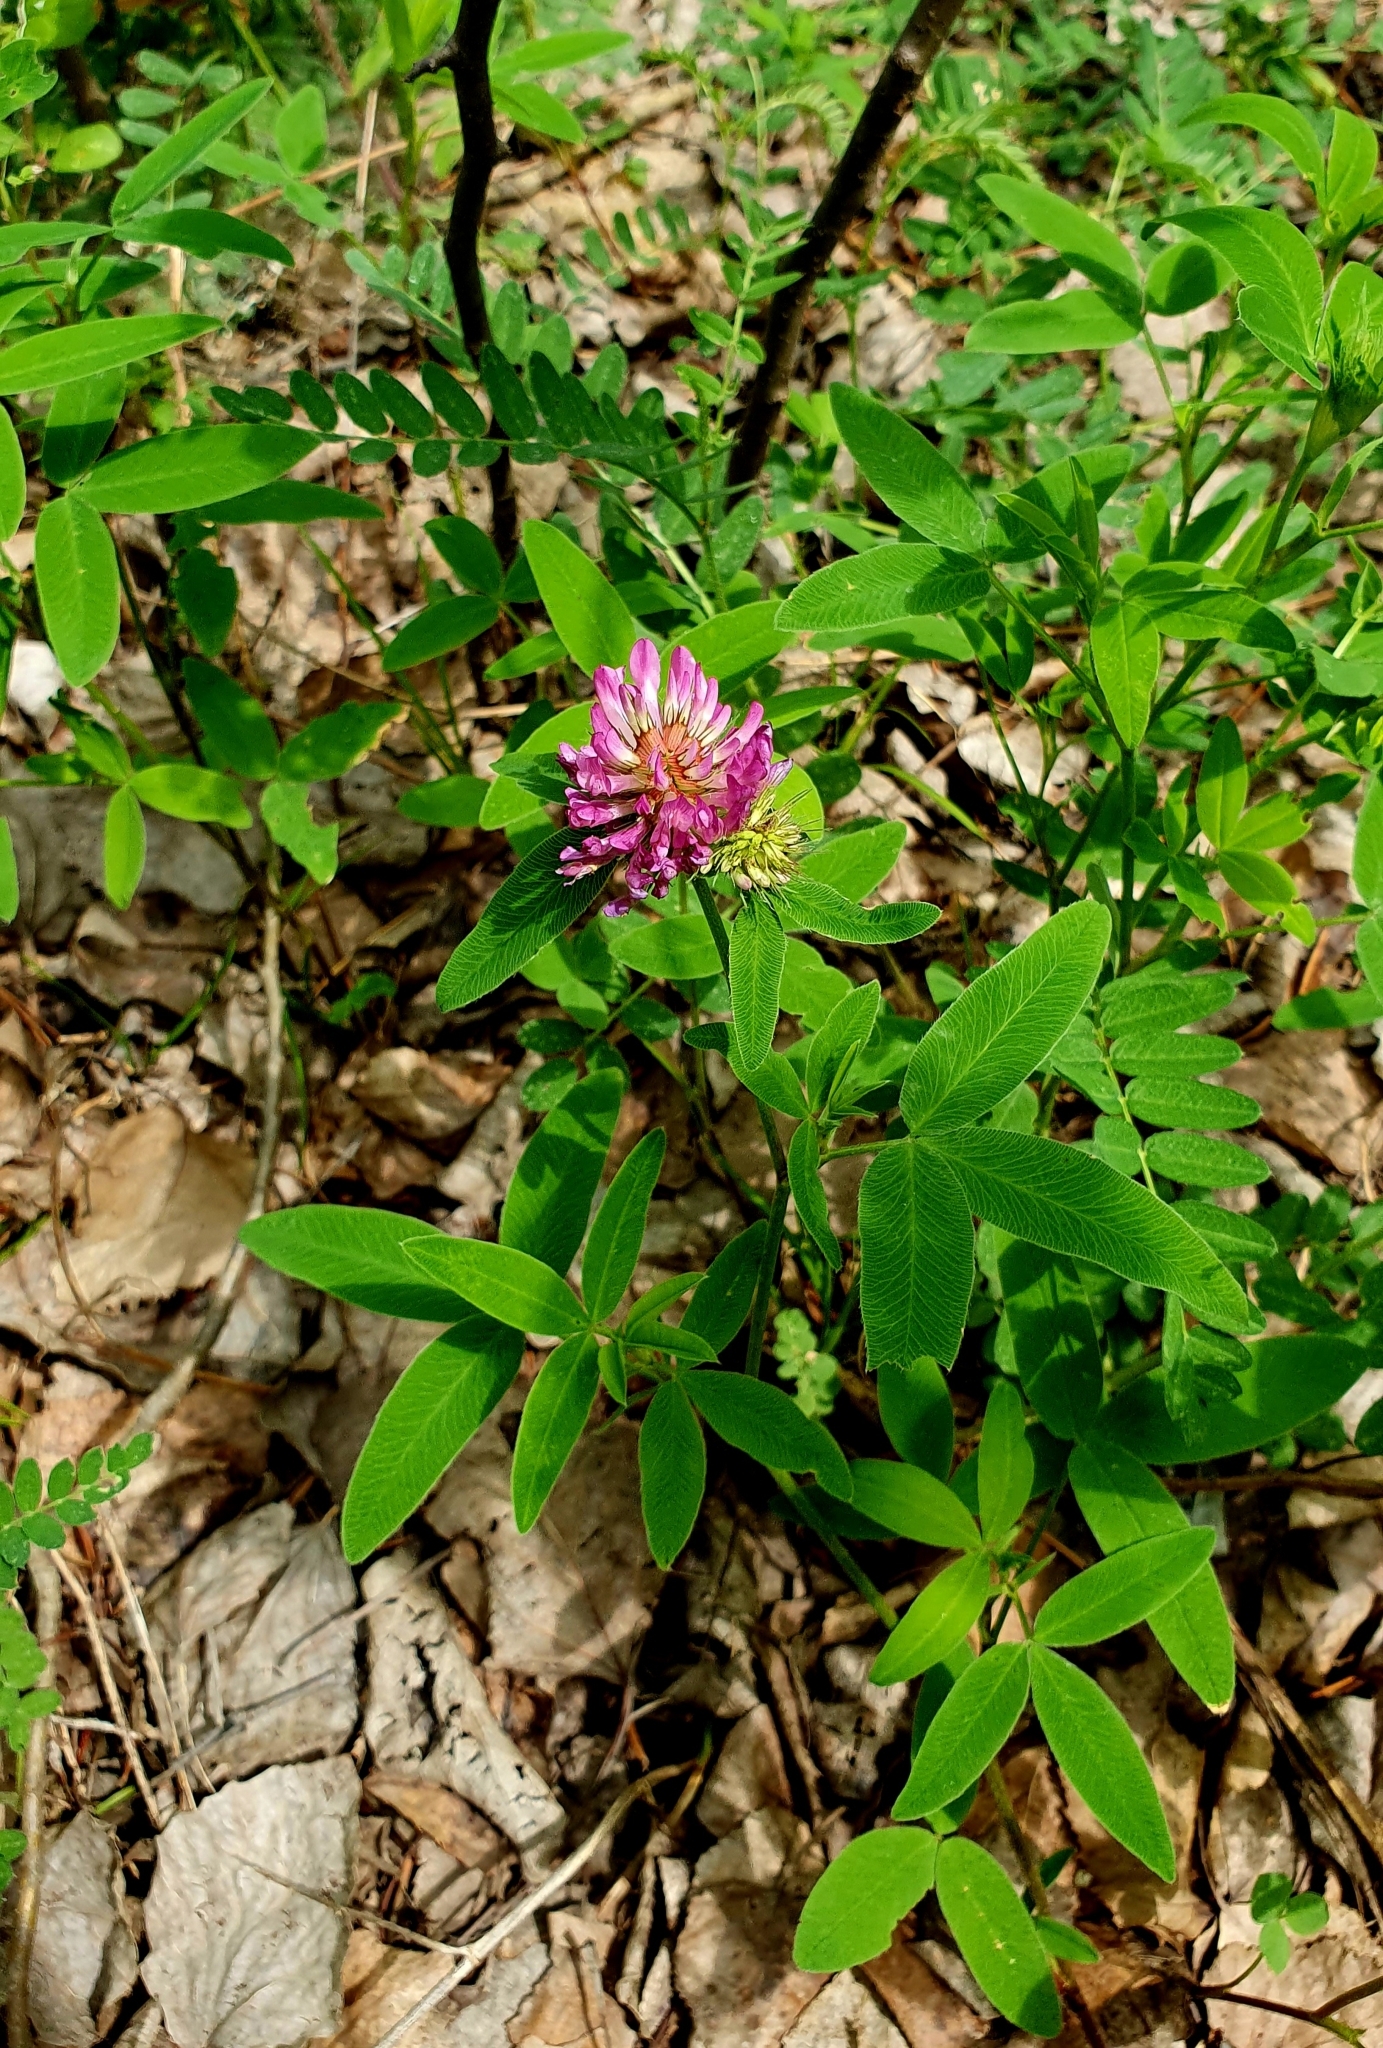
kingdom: Plantae
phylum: Tracheophyta
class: Magnoliopsida
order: Fabales
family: Fabaceae
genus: Trifolium
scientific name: Trifolium medium
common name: Zigzag clover
